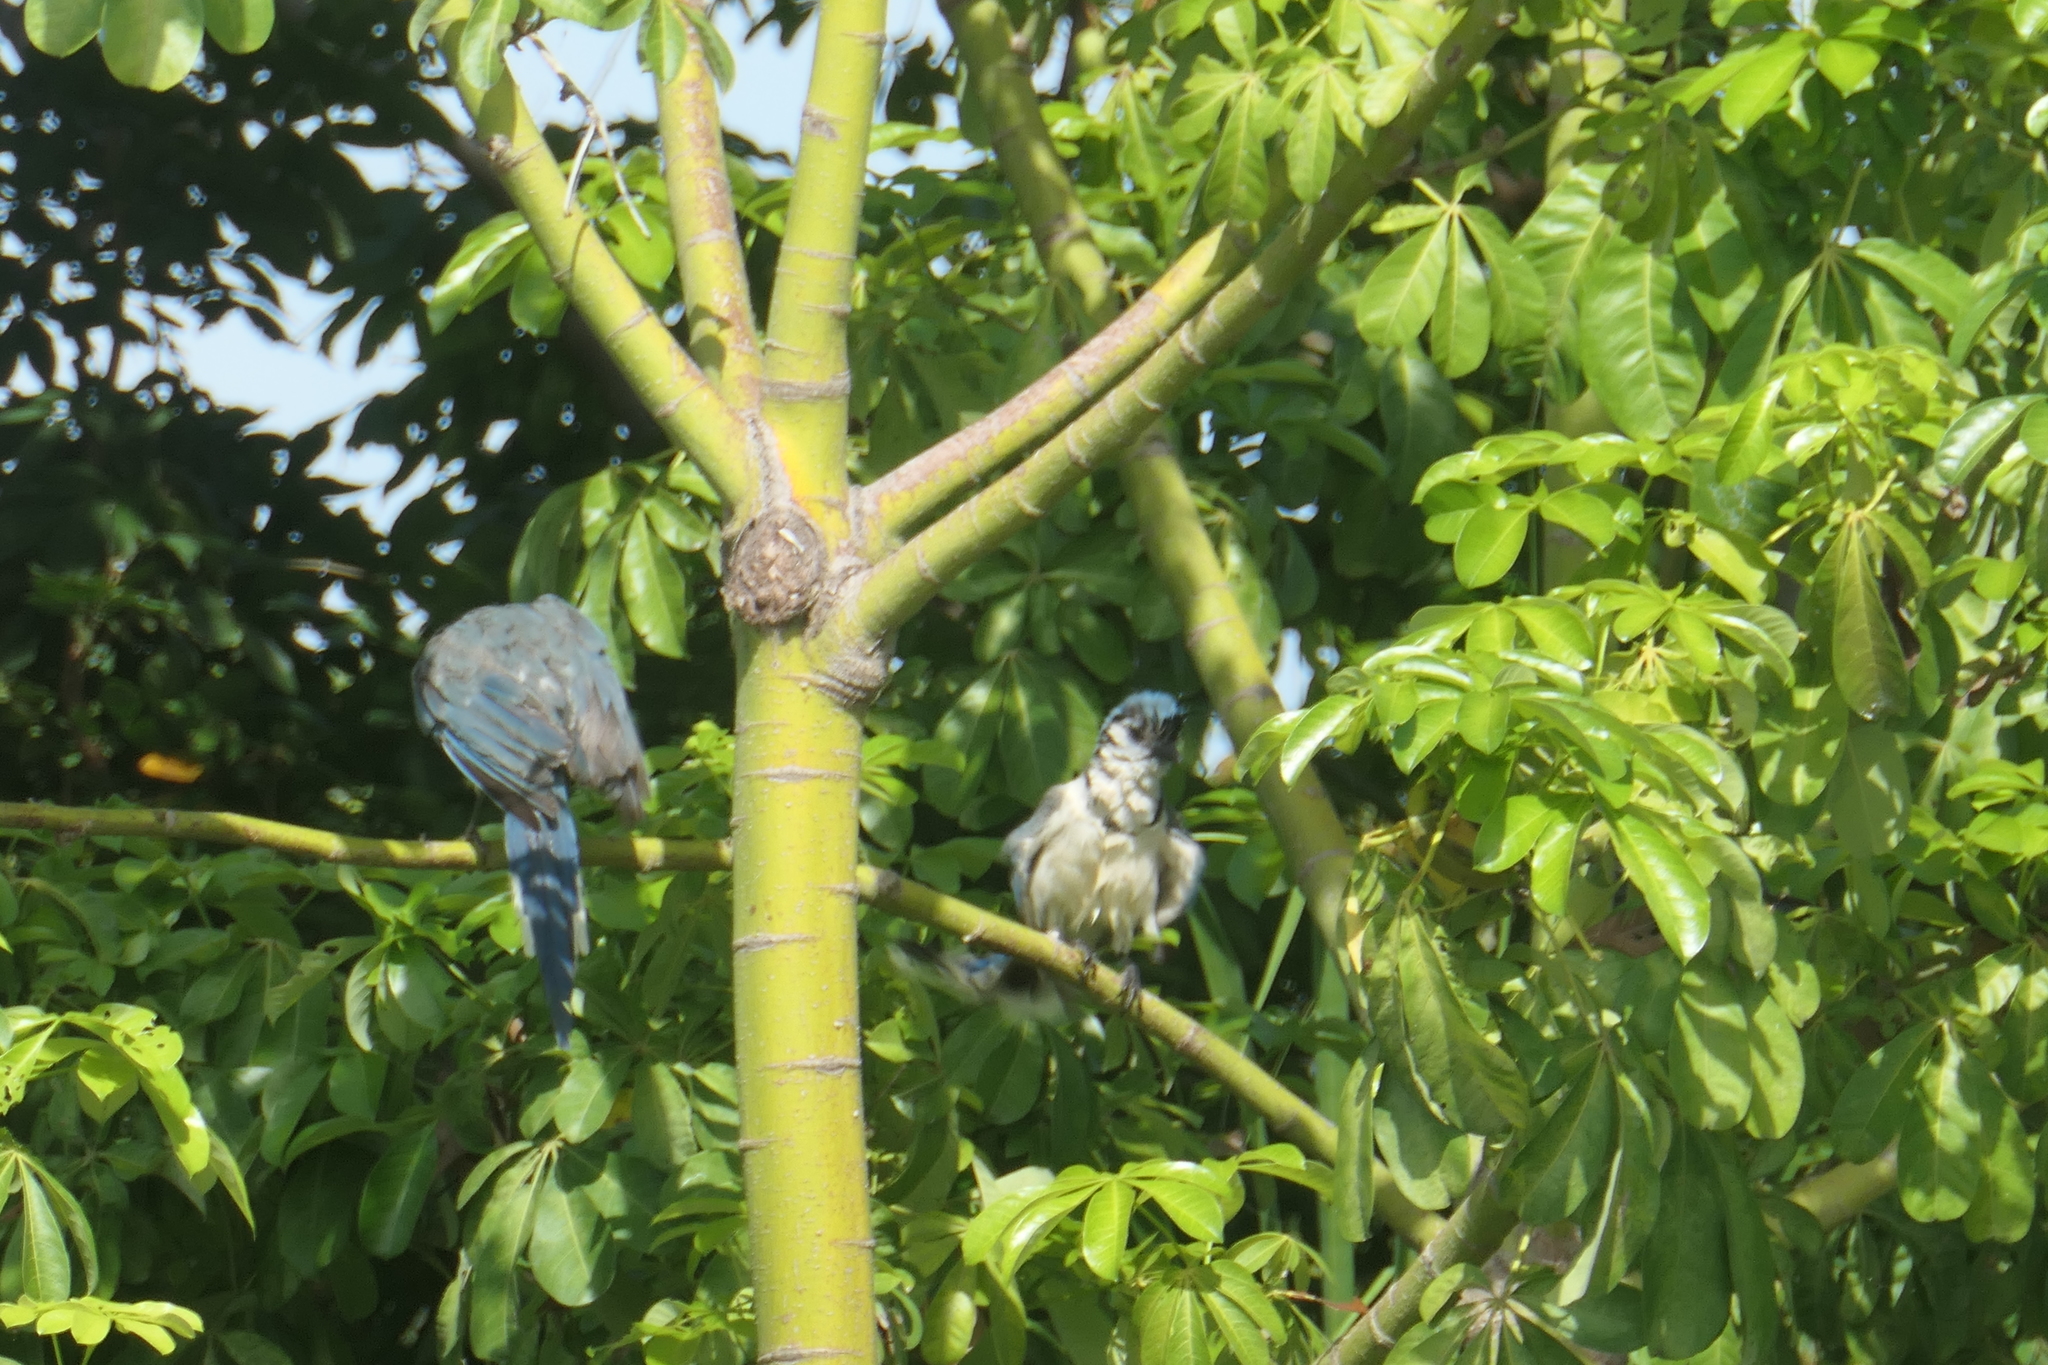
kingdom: Animalia
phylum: Chordata
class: Aves
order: Passeriformes
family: Corvidae
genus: Calocitta
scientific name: Calocitta formosa
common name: White-throated magpie-jay
